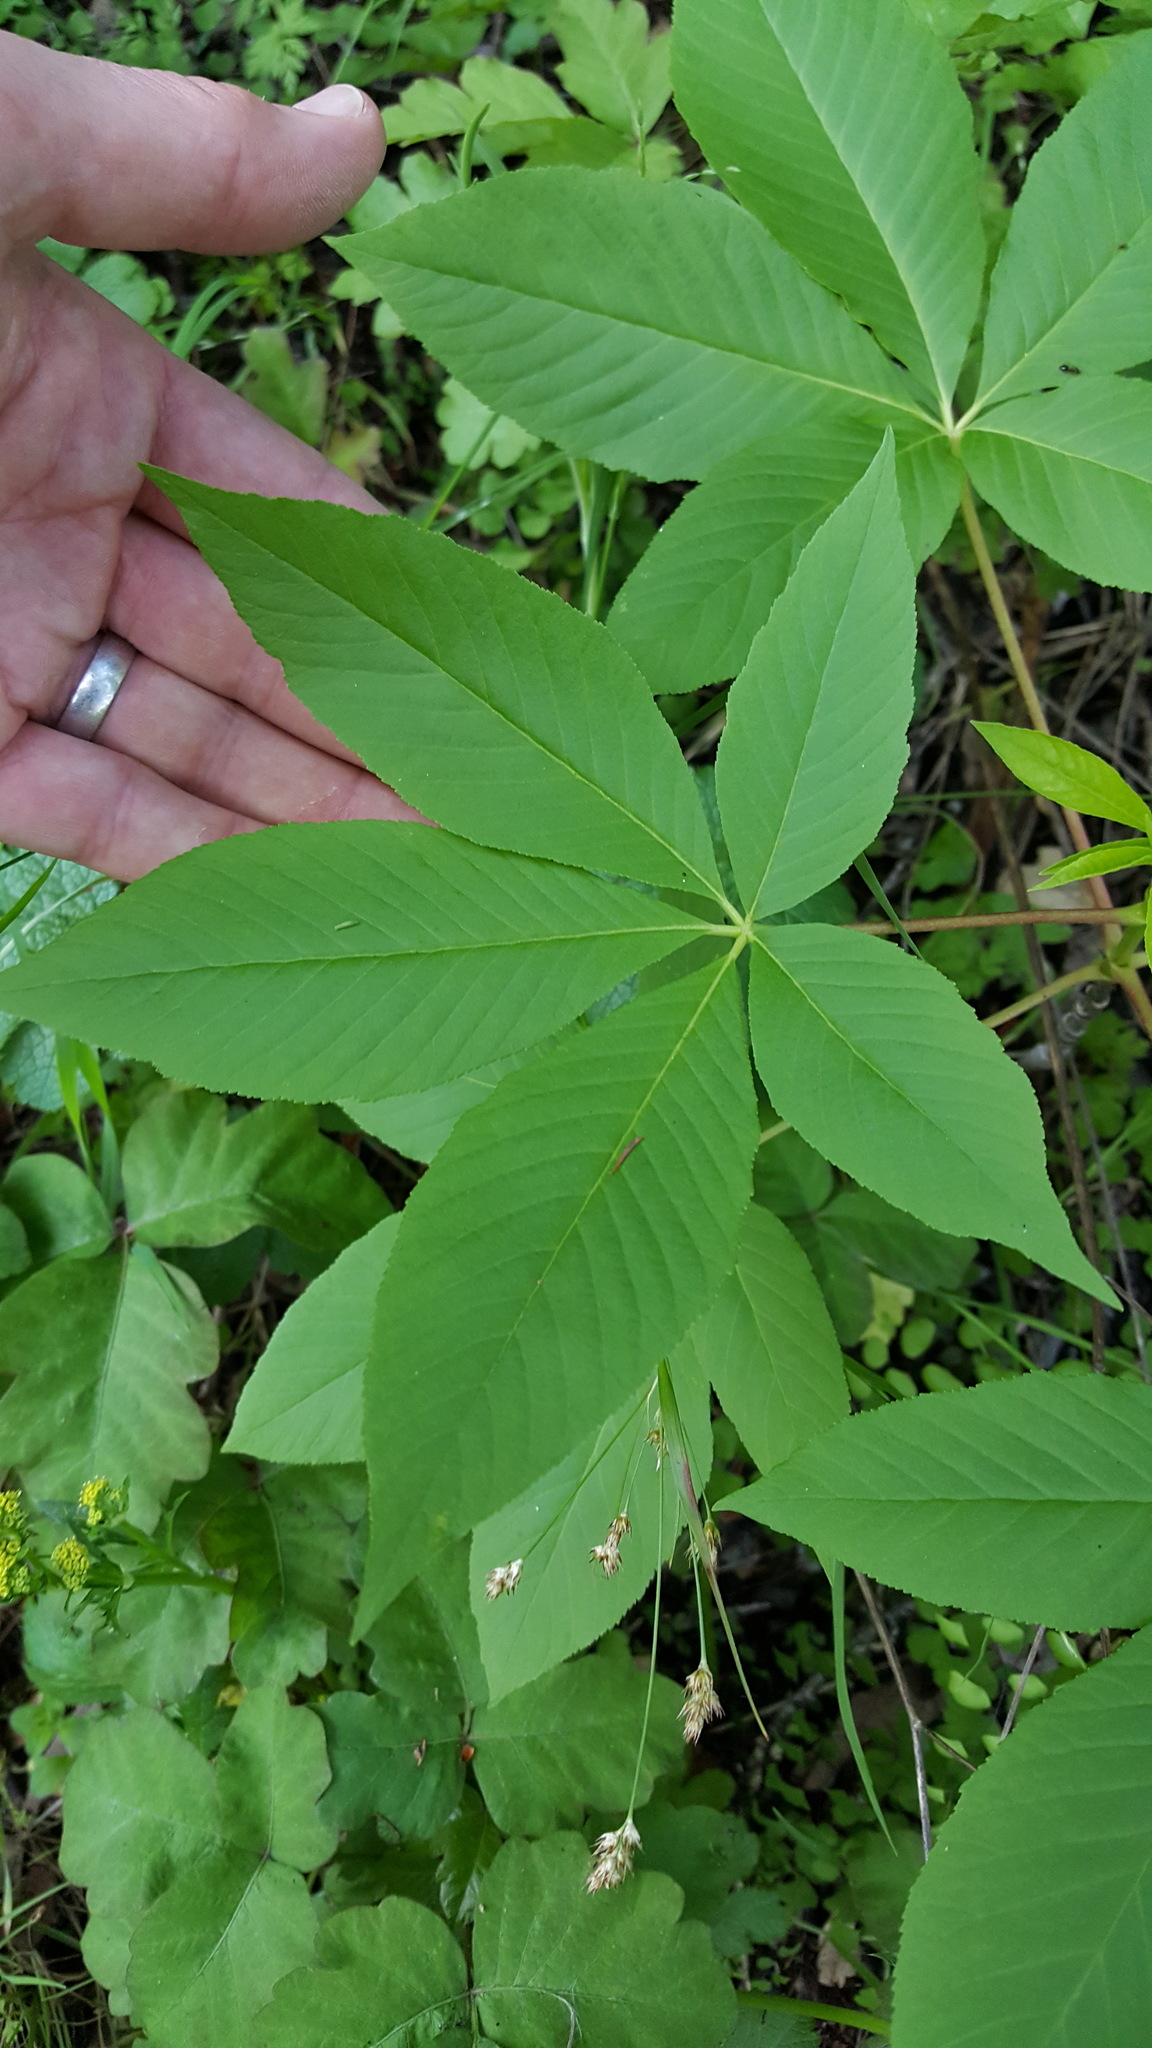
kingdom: Plantae
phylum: Tracheophyta
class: Magnoliopsida
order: Sapindales
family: Sapindaceae
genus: Aesculus
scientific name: Aesculus californica
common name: California buckeye
